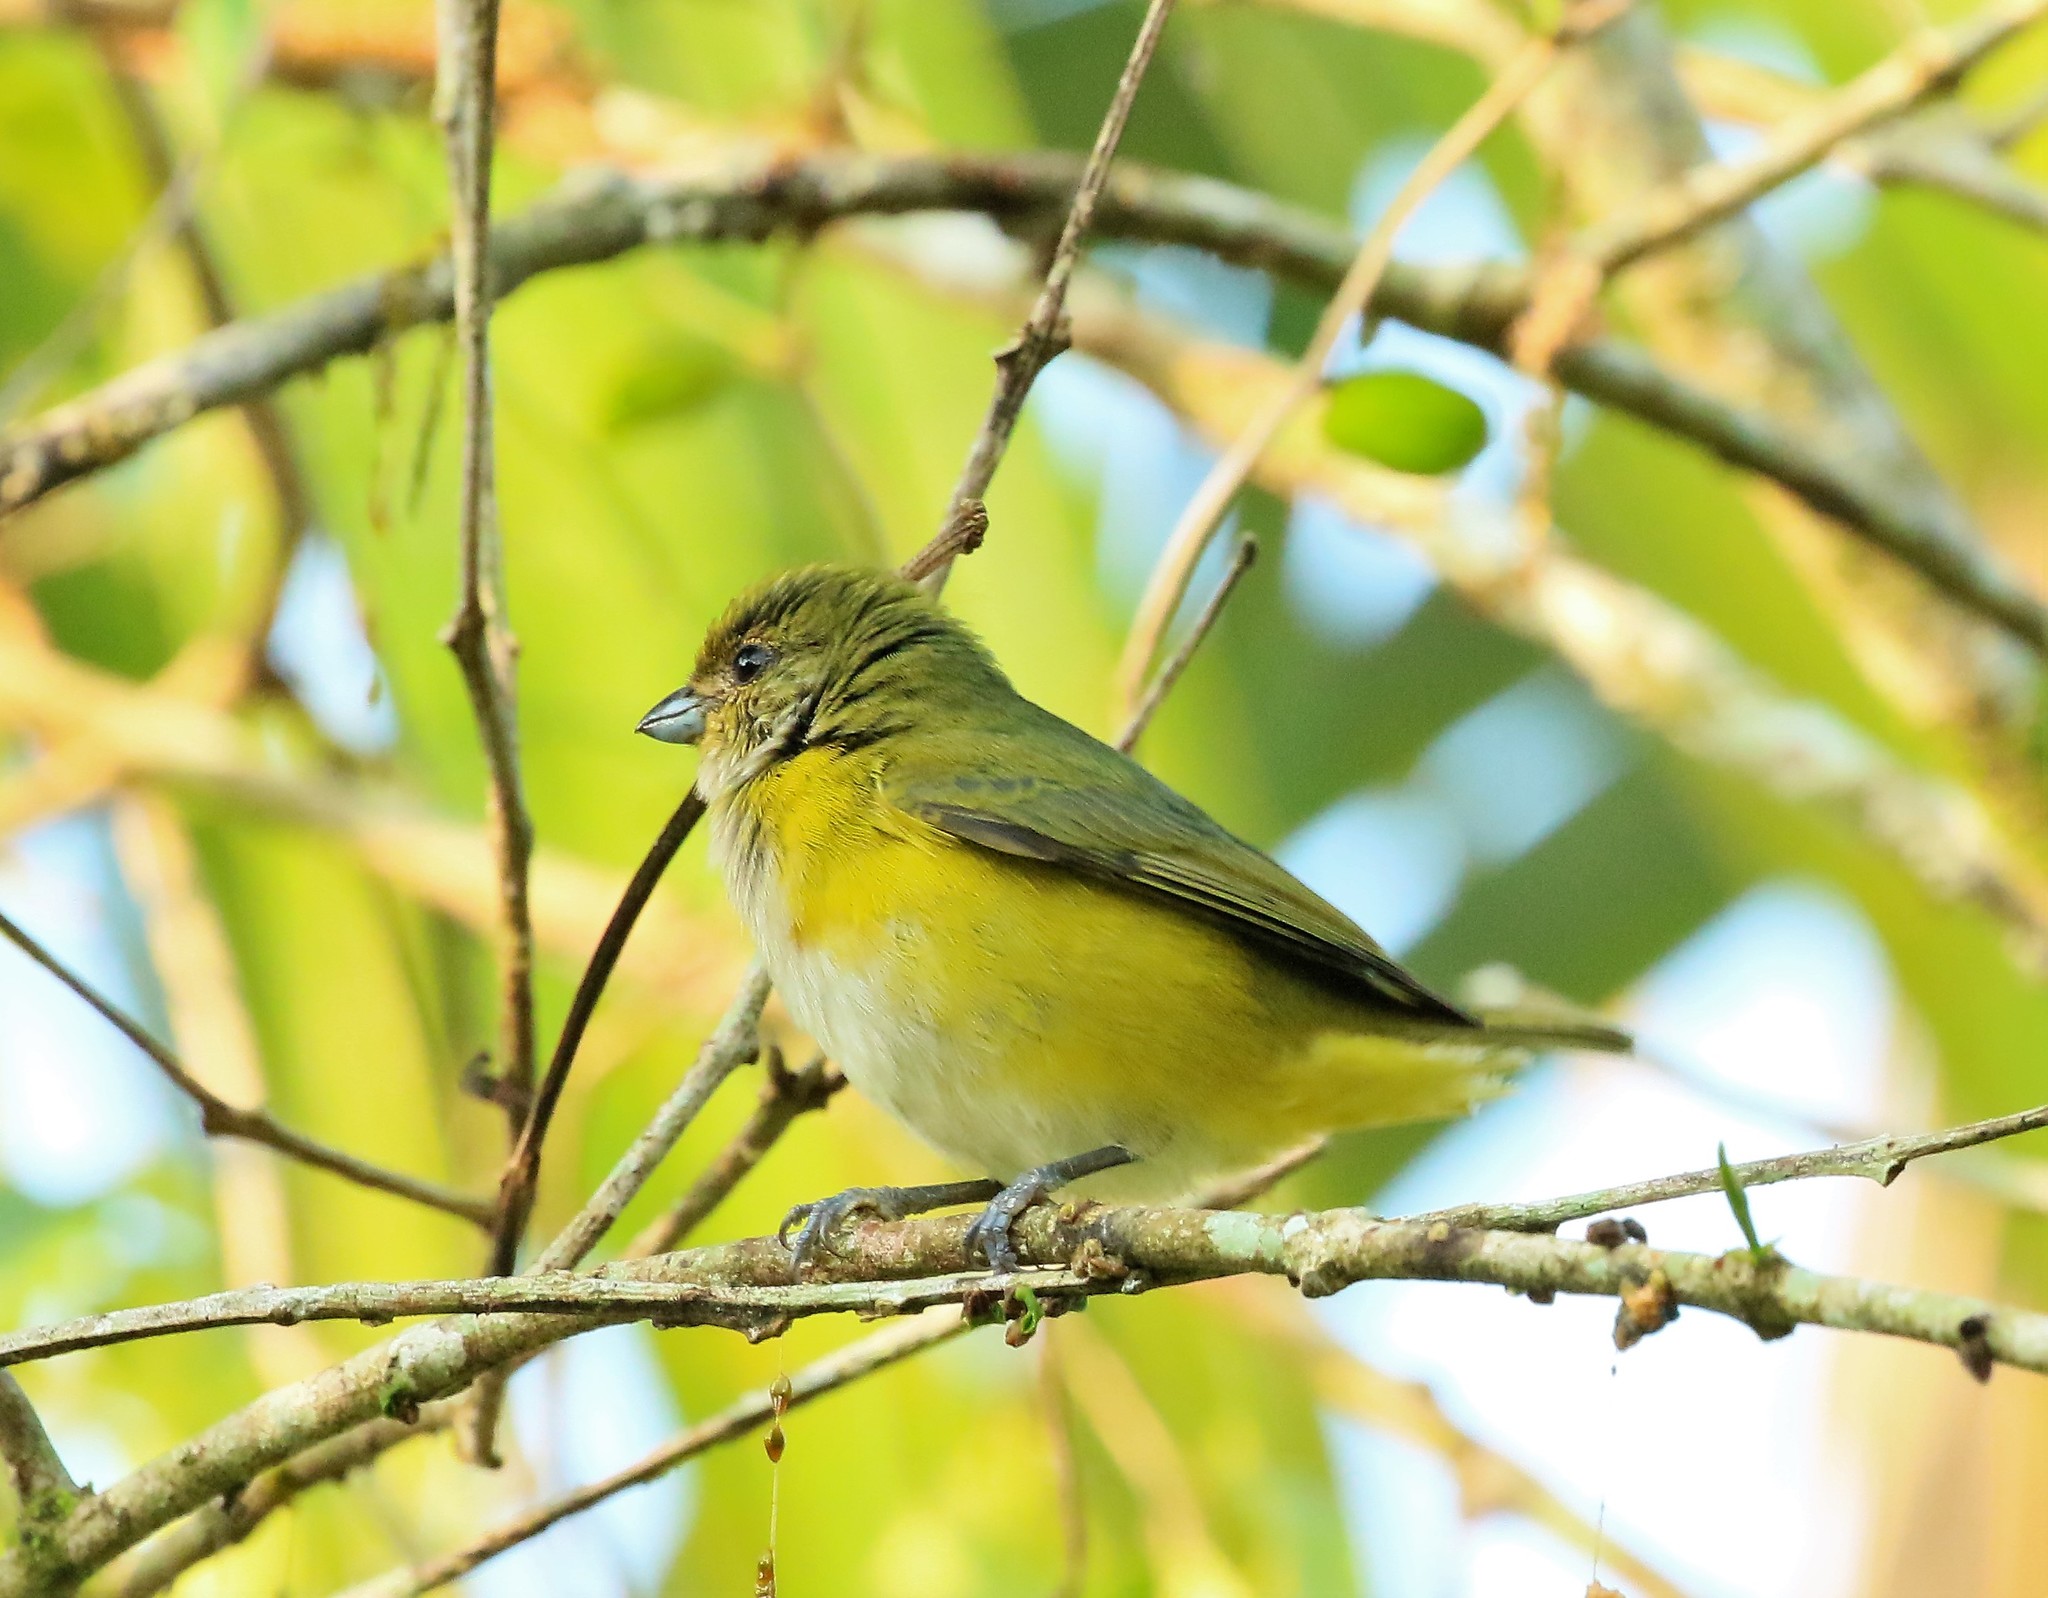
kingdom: Animalia
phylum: Chordata
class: Aves
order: Passeriformes
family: Fringillidae
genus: Euphonia
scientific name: Euphonia hirundinacea
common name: Yellow-throated euphonia
